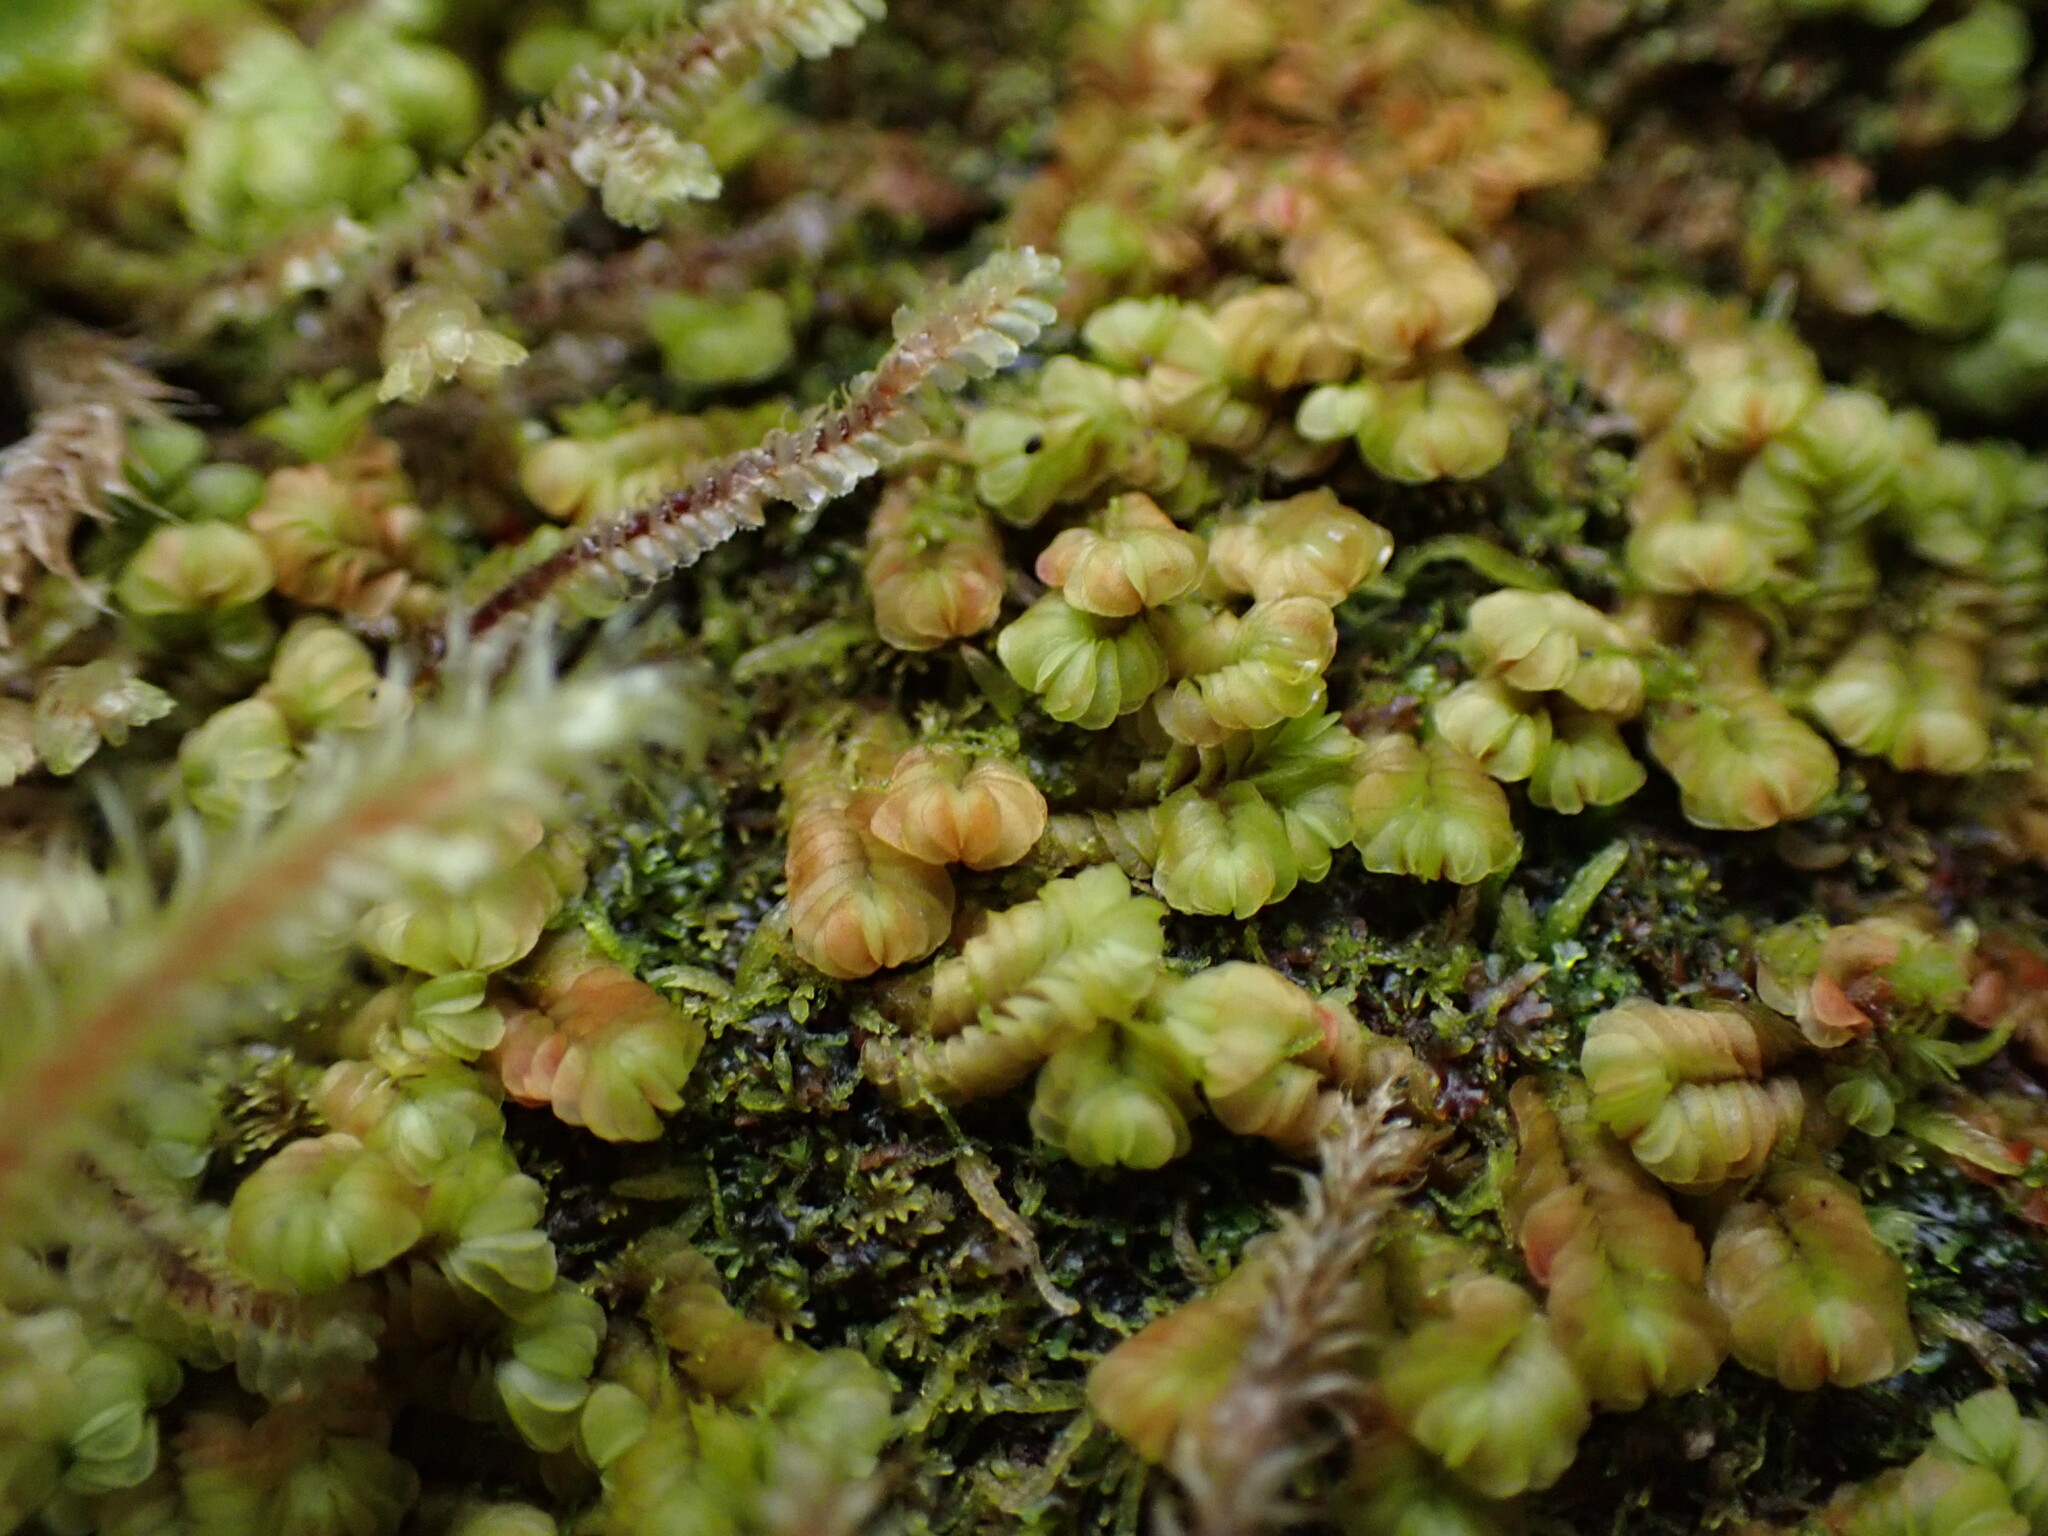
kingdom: Plantae
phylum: Marchantiophyta
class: Jungermanniopsida
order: Jungermanniales
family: Myliaceae
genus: Mylia
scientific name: Mylia taylorii
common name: Taylor s flapwort
